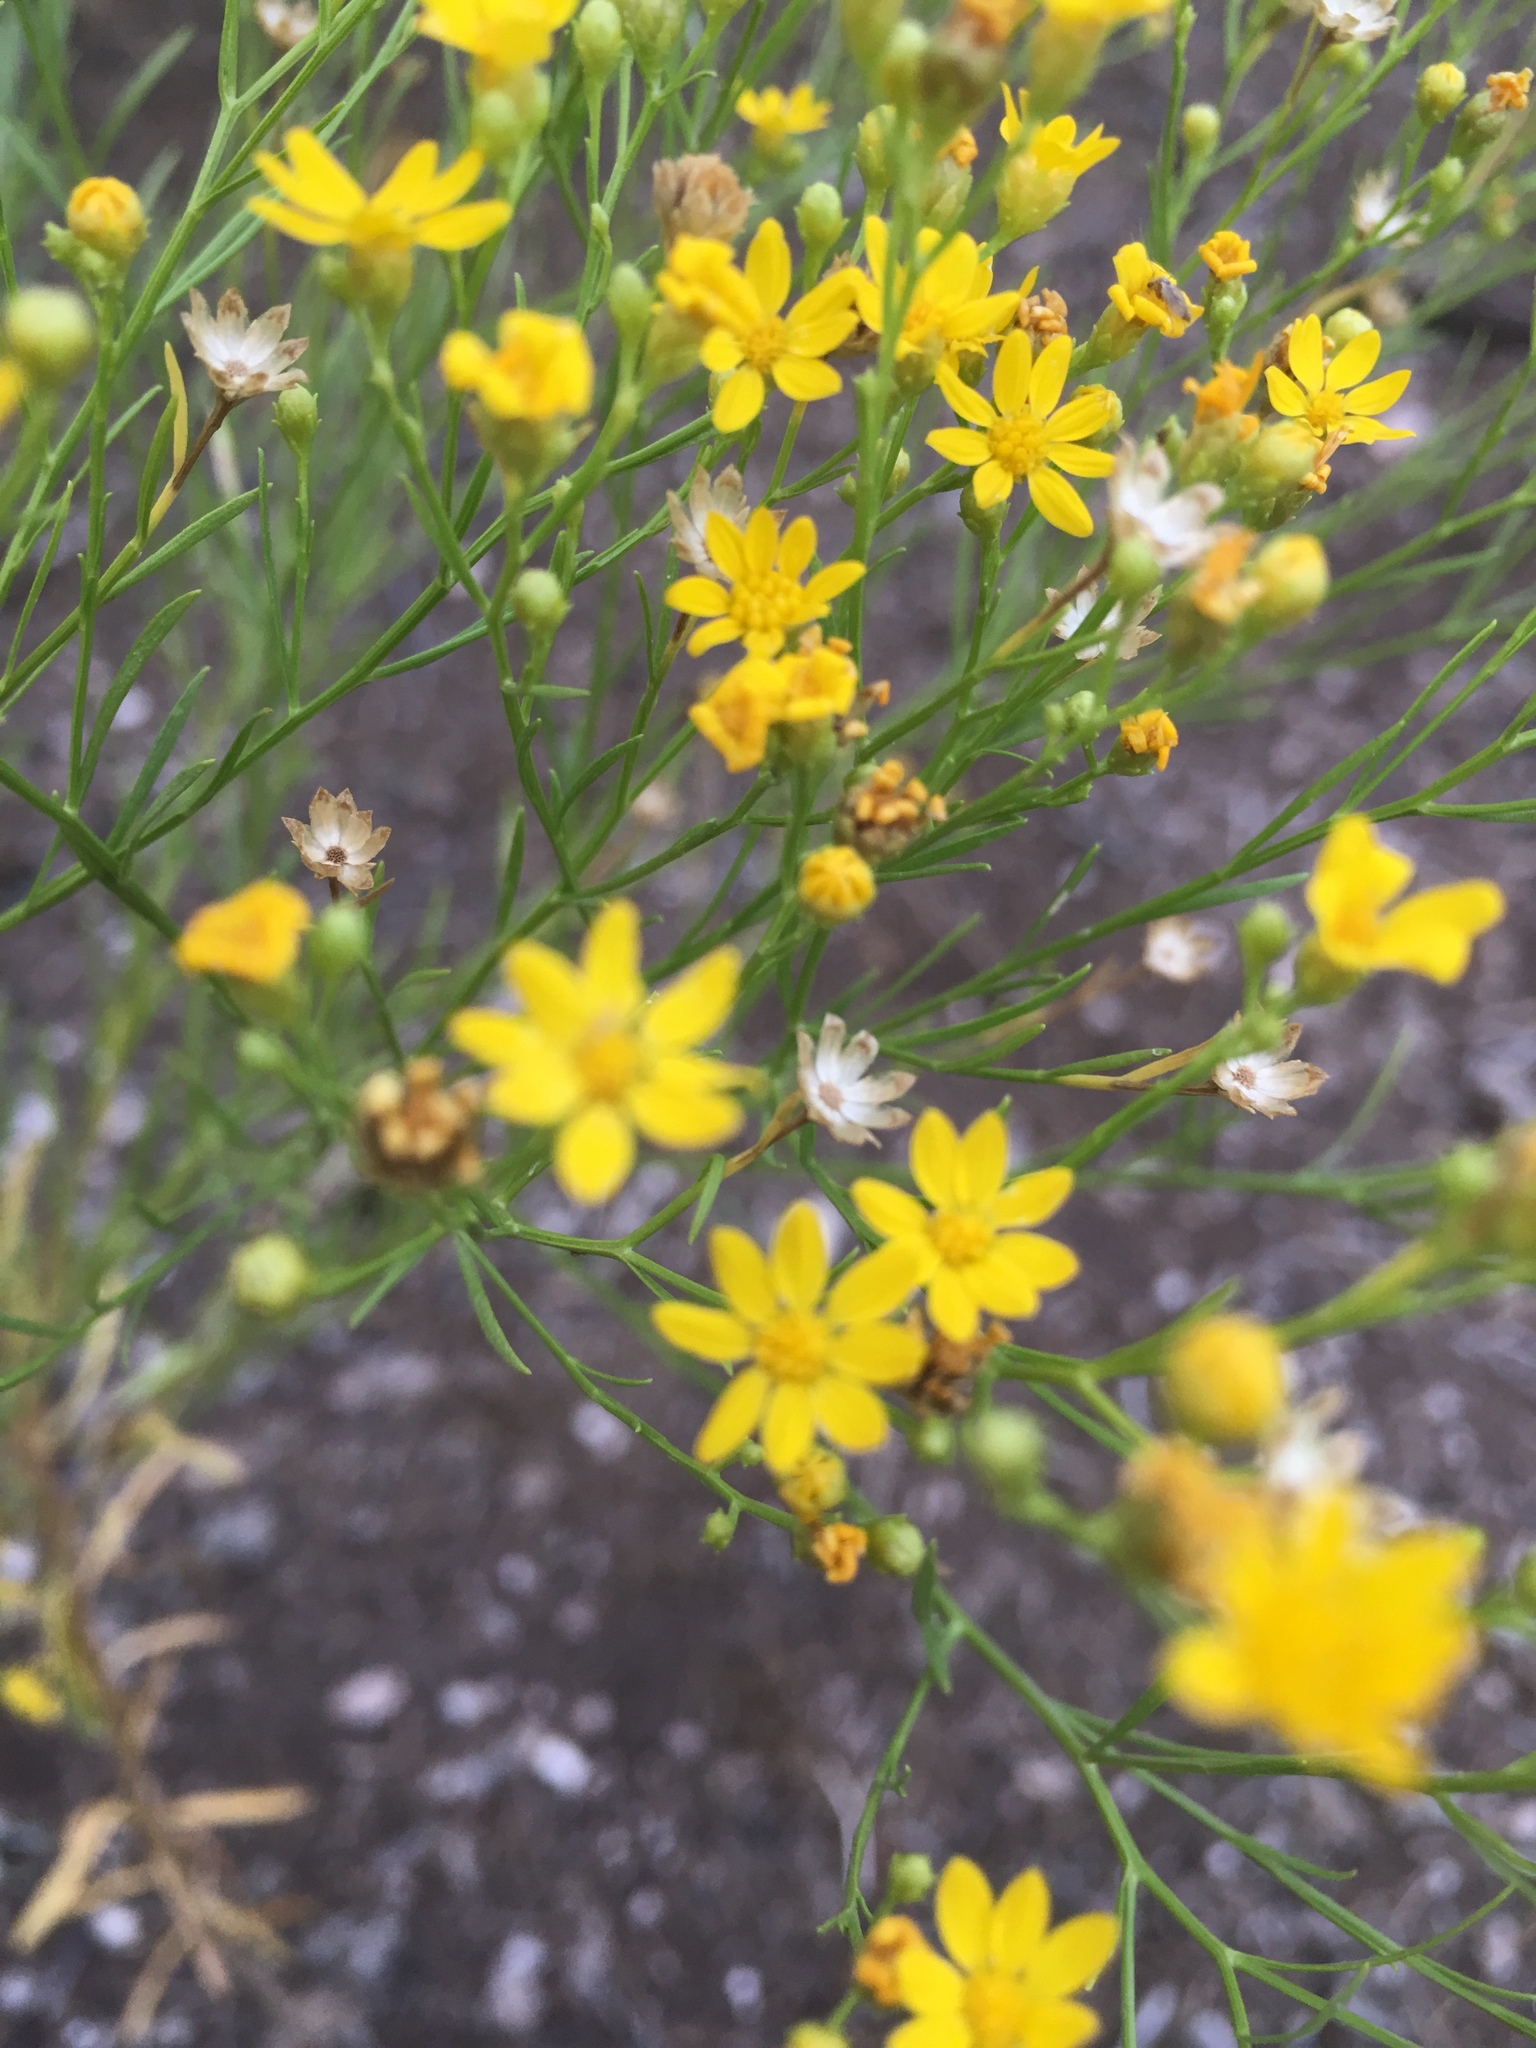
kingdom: Plantae
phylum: Tracheophyta
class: Magnoliopsida
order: Asterales
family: Asteraceae
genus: Gutierrezia
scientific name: Gutierrezia sphaerocephala
